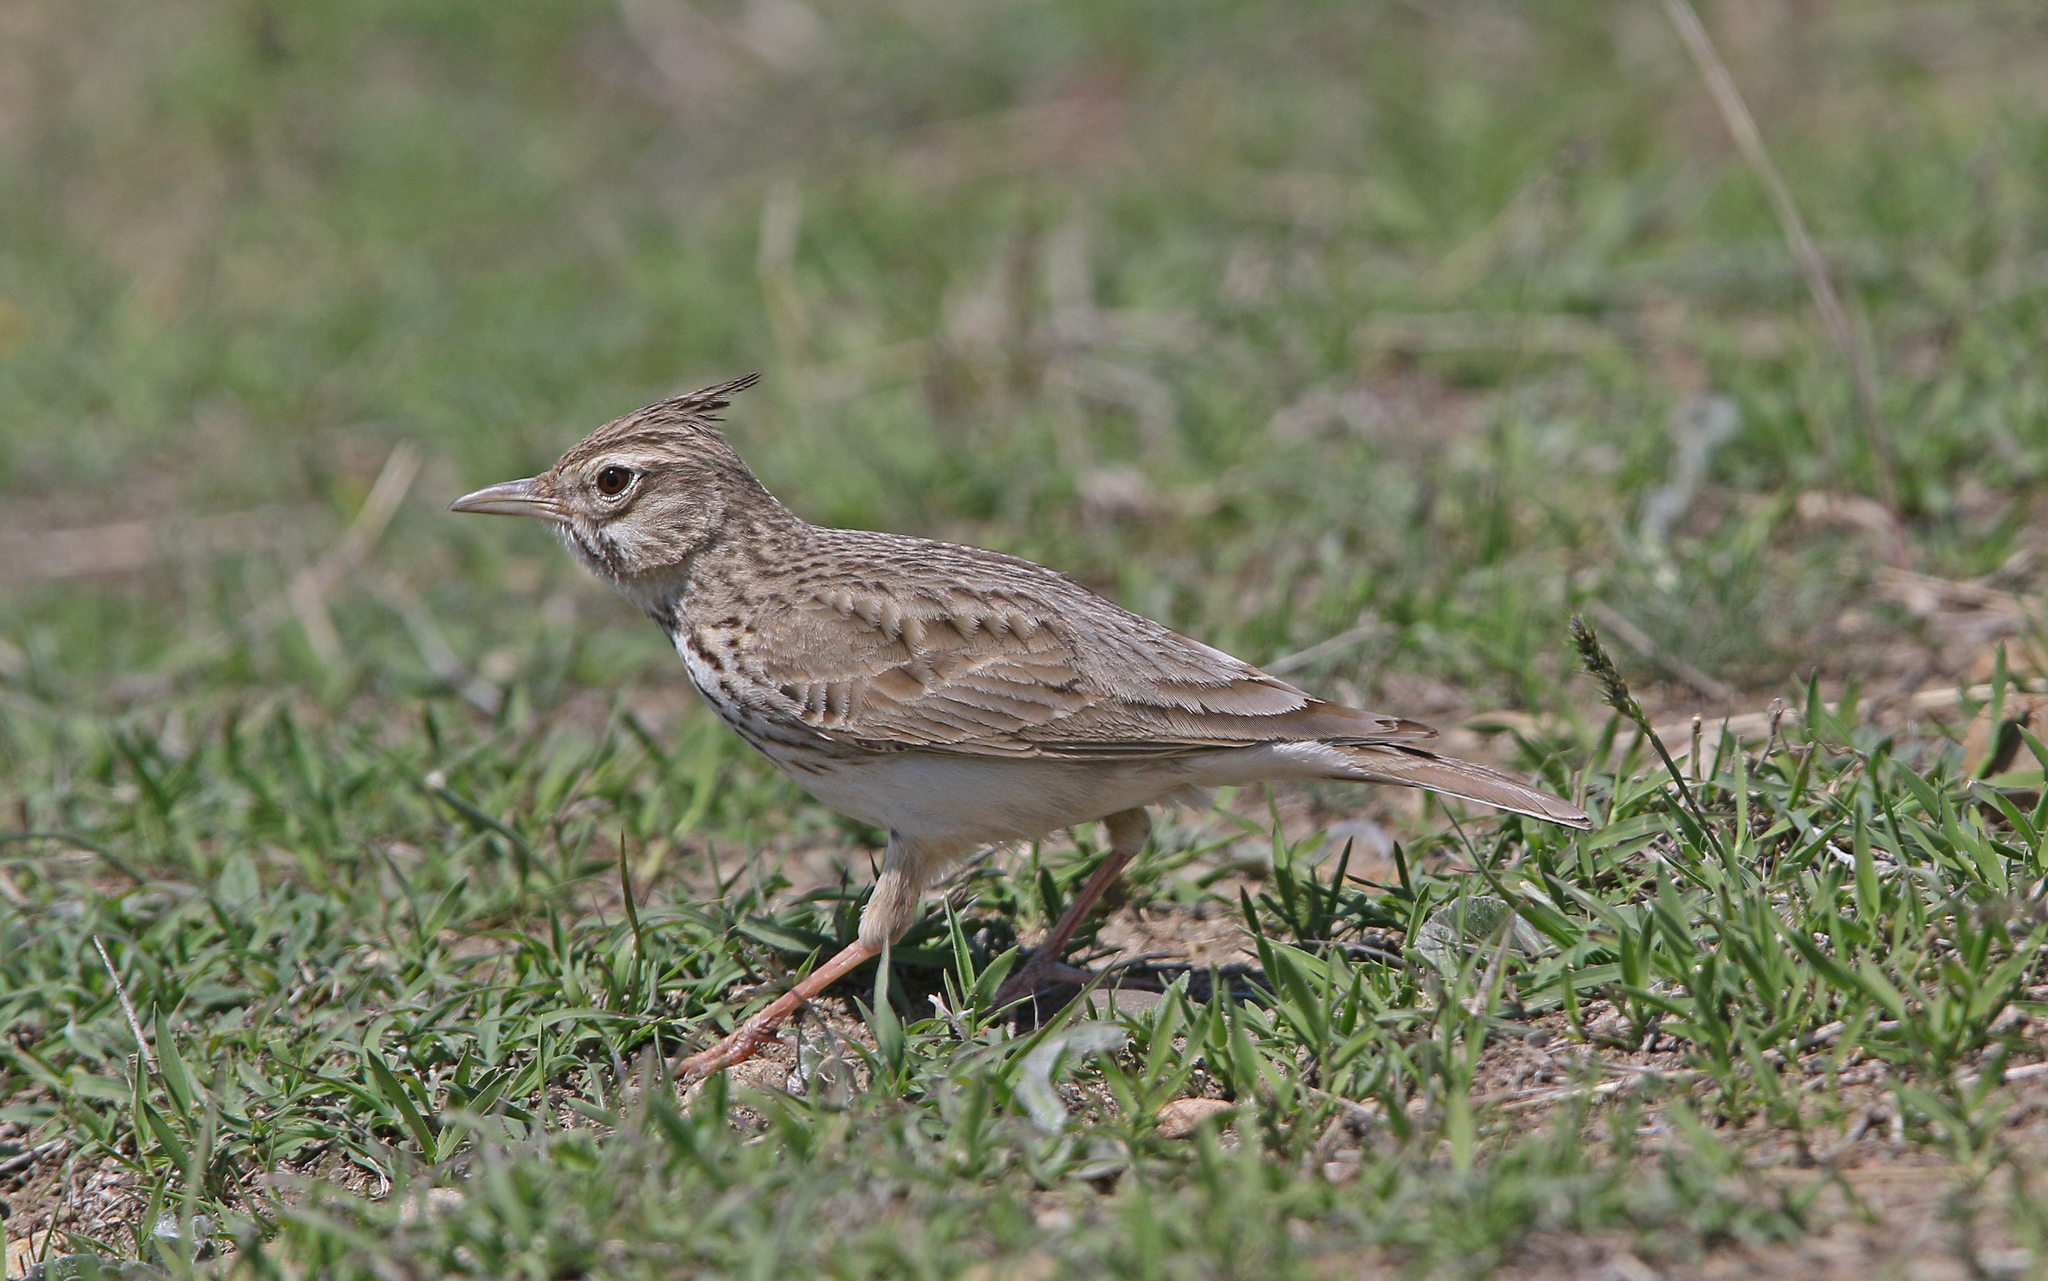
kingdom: Animalia
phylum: Chordata
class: Aves
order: Passeriformes
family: Alaudidae
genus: Galerida
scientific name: Galerida cristata
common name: Crested lark
